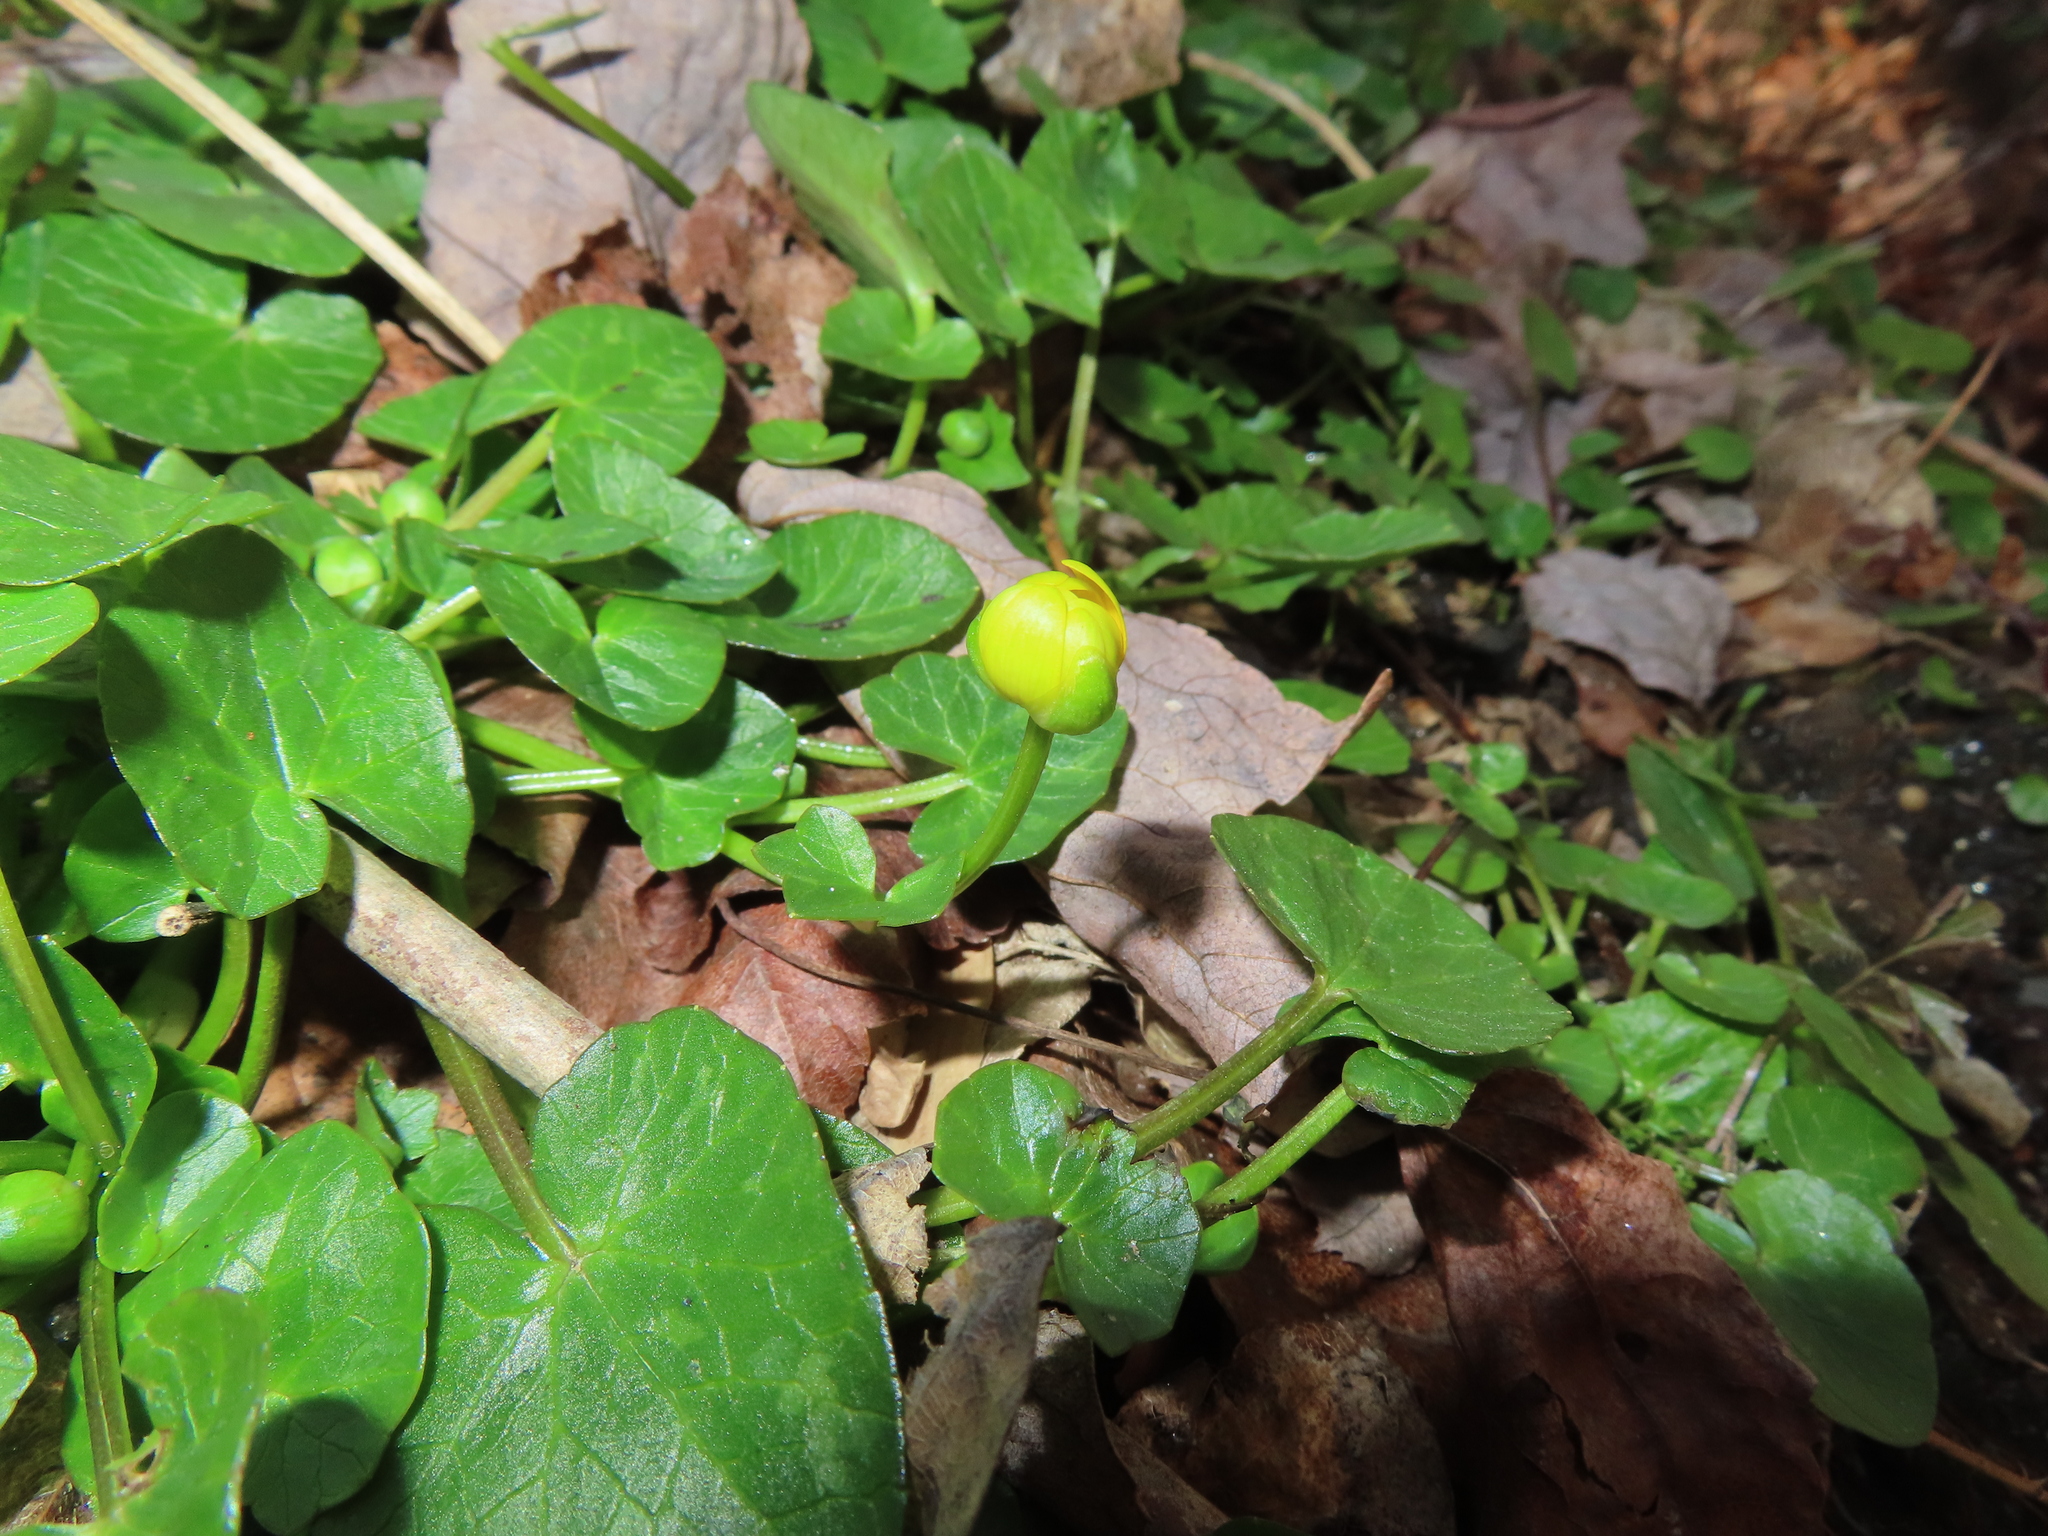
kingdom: Plantae
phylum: Tracheophyta
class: Magnoliopsida
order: Ranunculales
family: Ranunculaceae
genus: Ficaria
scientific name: Ficaria verna
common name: Lesser celandine
